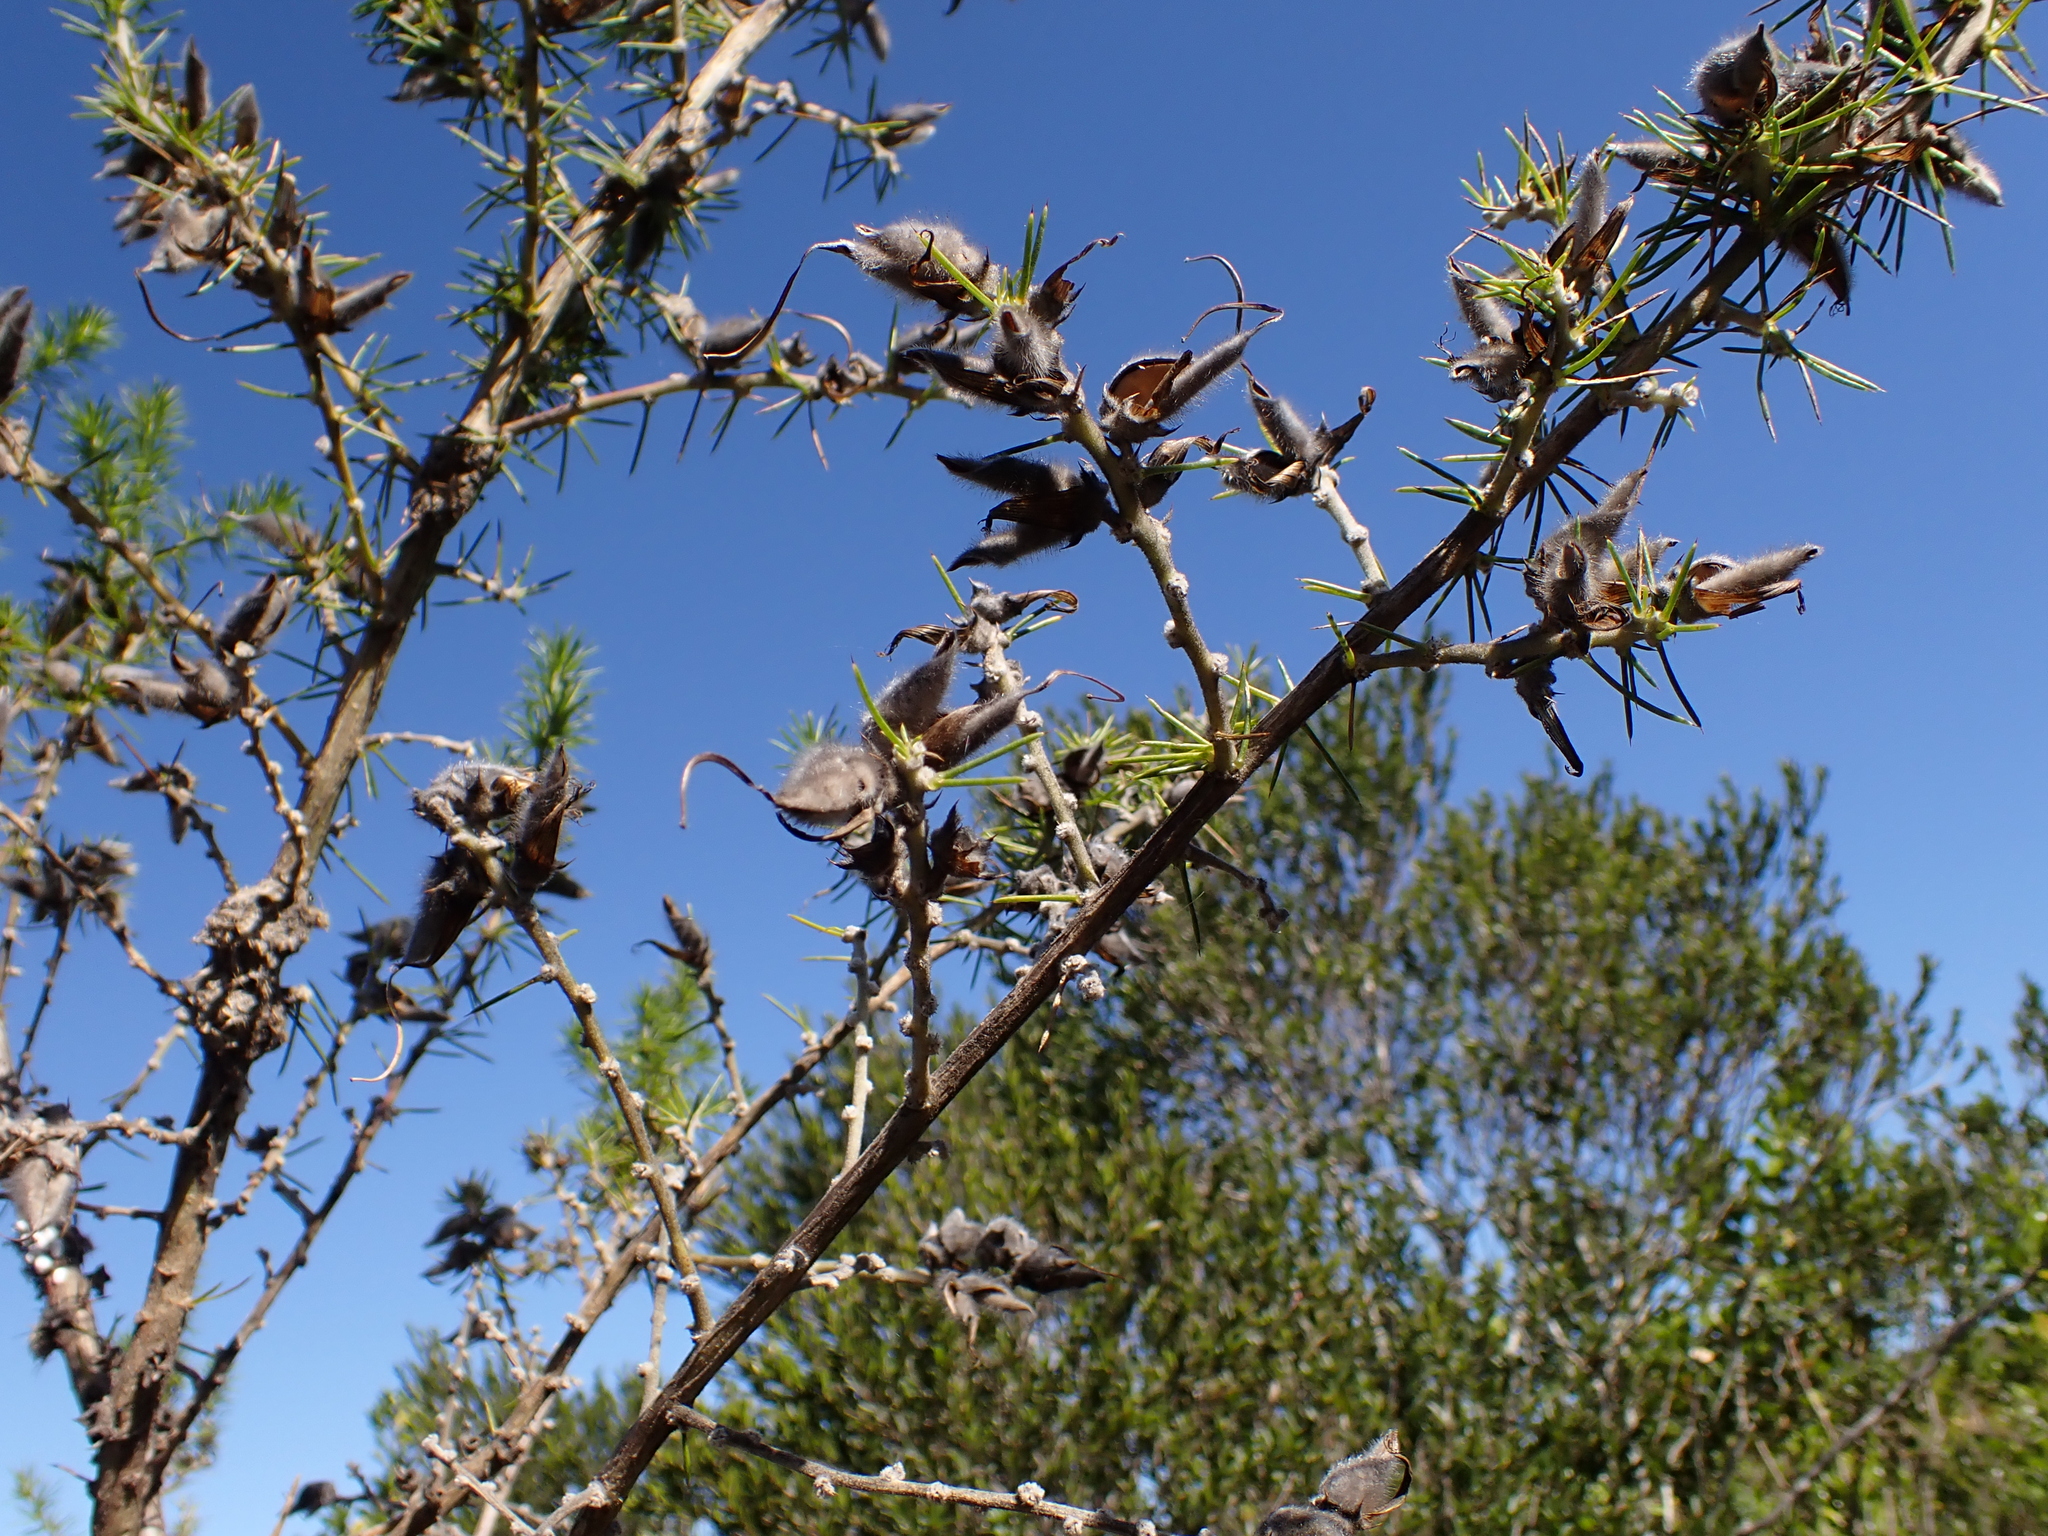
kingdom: Plantae
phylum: Tracheophyta
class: Magnoliopsida
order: Fabales
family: Fabaceae
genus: Aspalathus
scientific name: Aspalathus spectabilis
